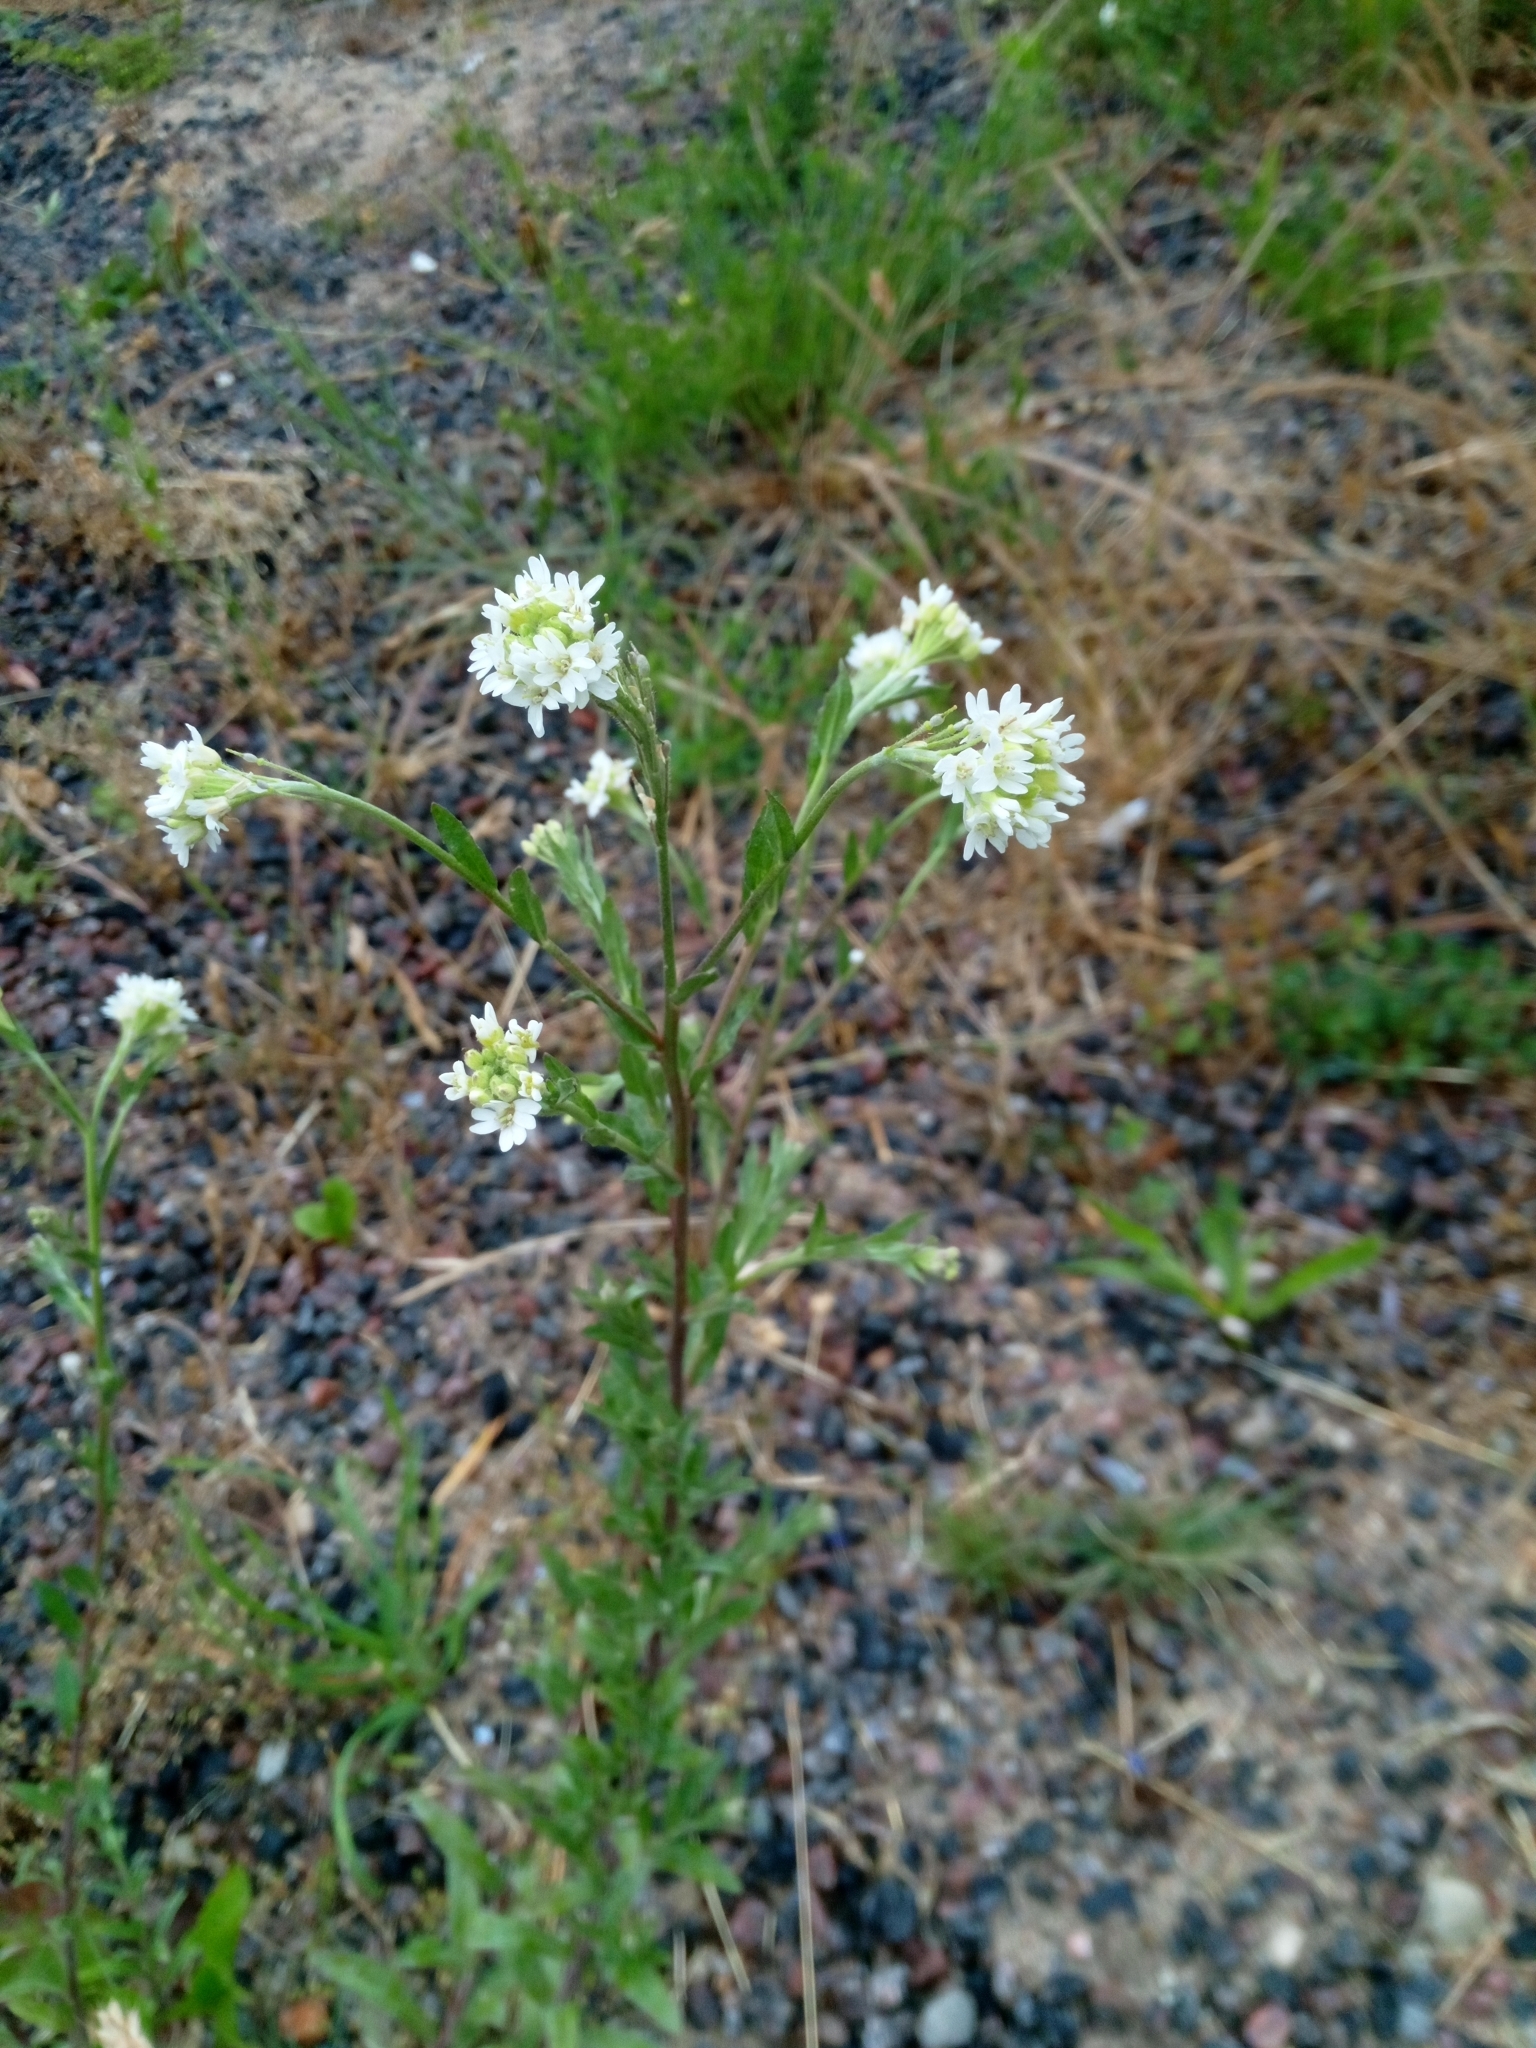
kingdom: Plantae
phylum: Tracheophyta
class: Magnoliopsida
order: Brassicales
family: Brassicaceae
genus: Berteroa
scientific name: Berteroa incana
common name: Hoary alison
